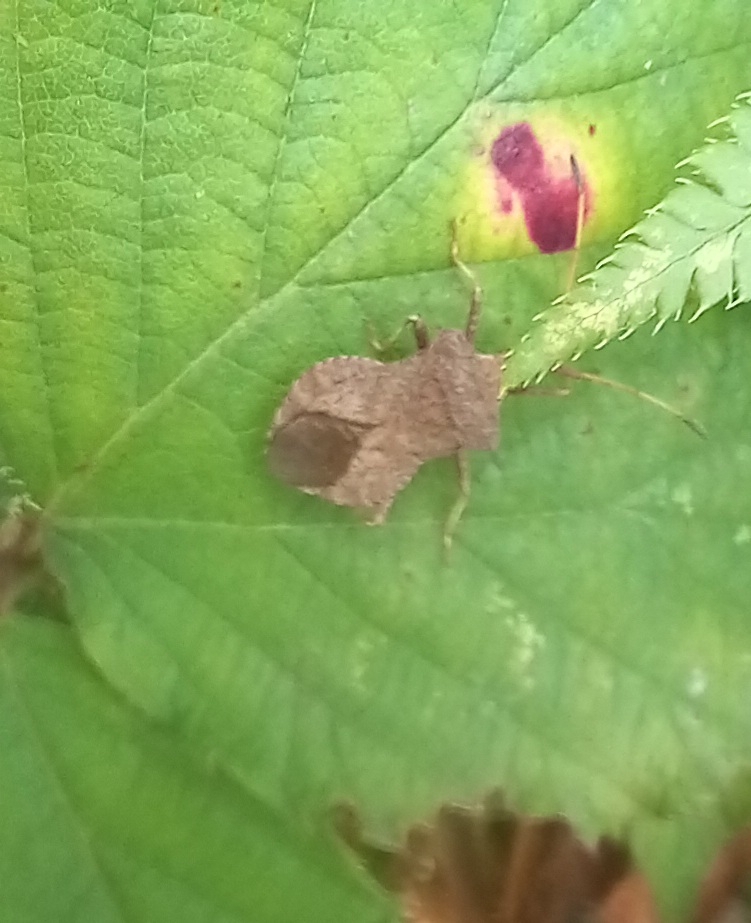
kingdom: Animalia
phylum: Arthropoda
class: Insecta
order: Hemiptera
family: Coreidae
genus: Coreus
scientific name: Coreus marginatus
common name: Dock bug
